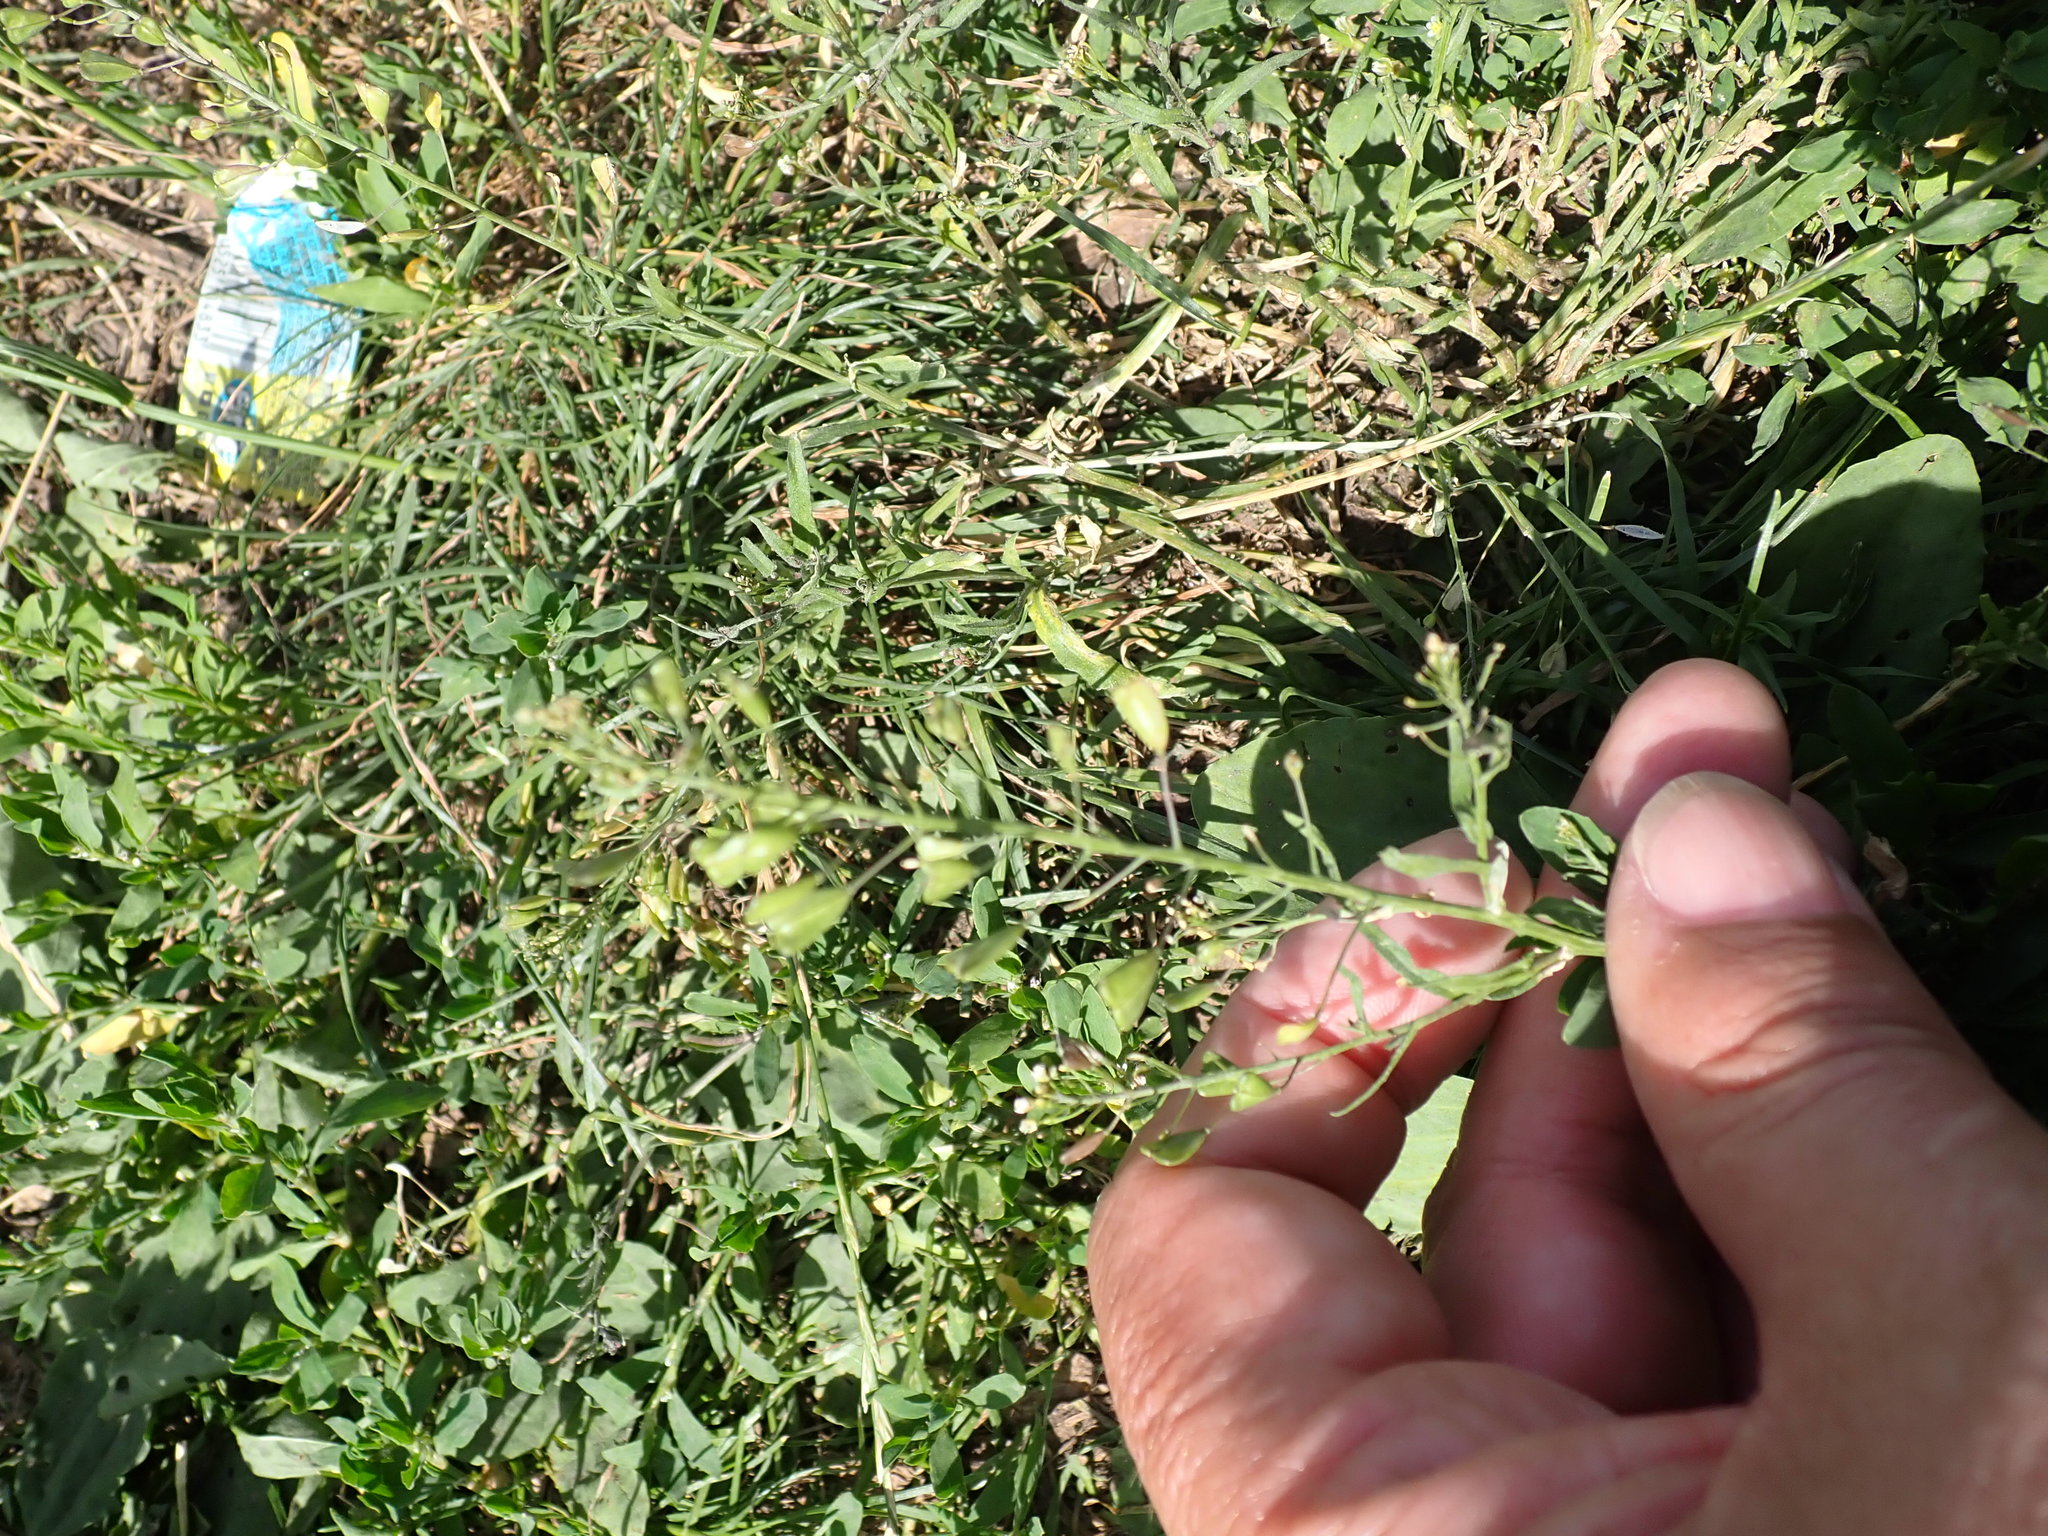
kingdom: Plantae
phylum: Tracheophyta
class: Magnoliopsida
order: Brassicales
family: Brassicaceae
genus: Capsella
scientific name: Capsella bursa-pastoris
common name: Shepherd's purse
